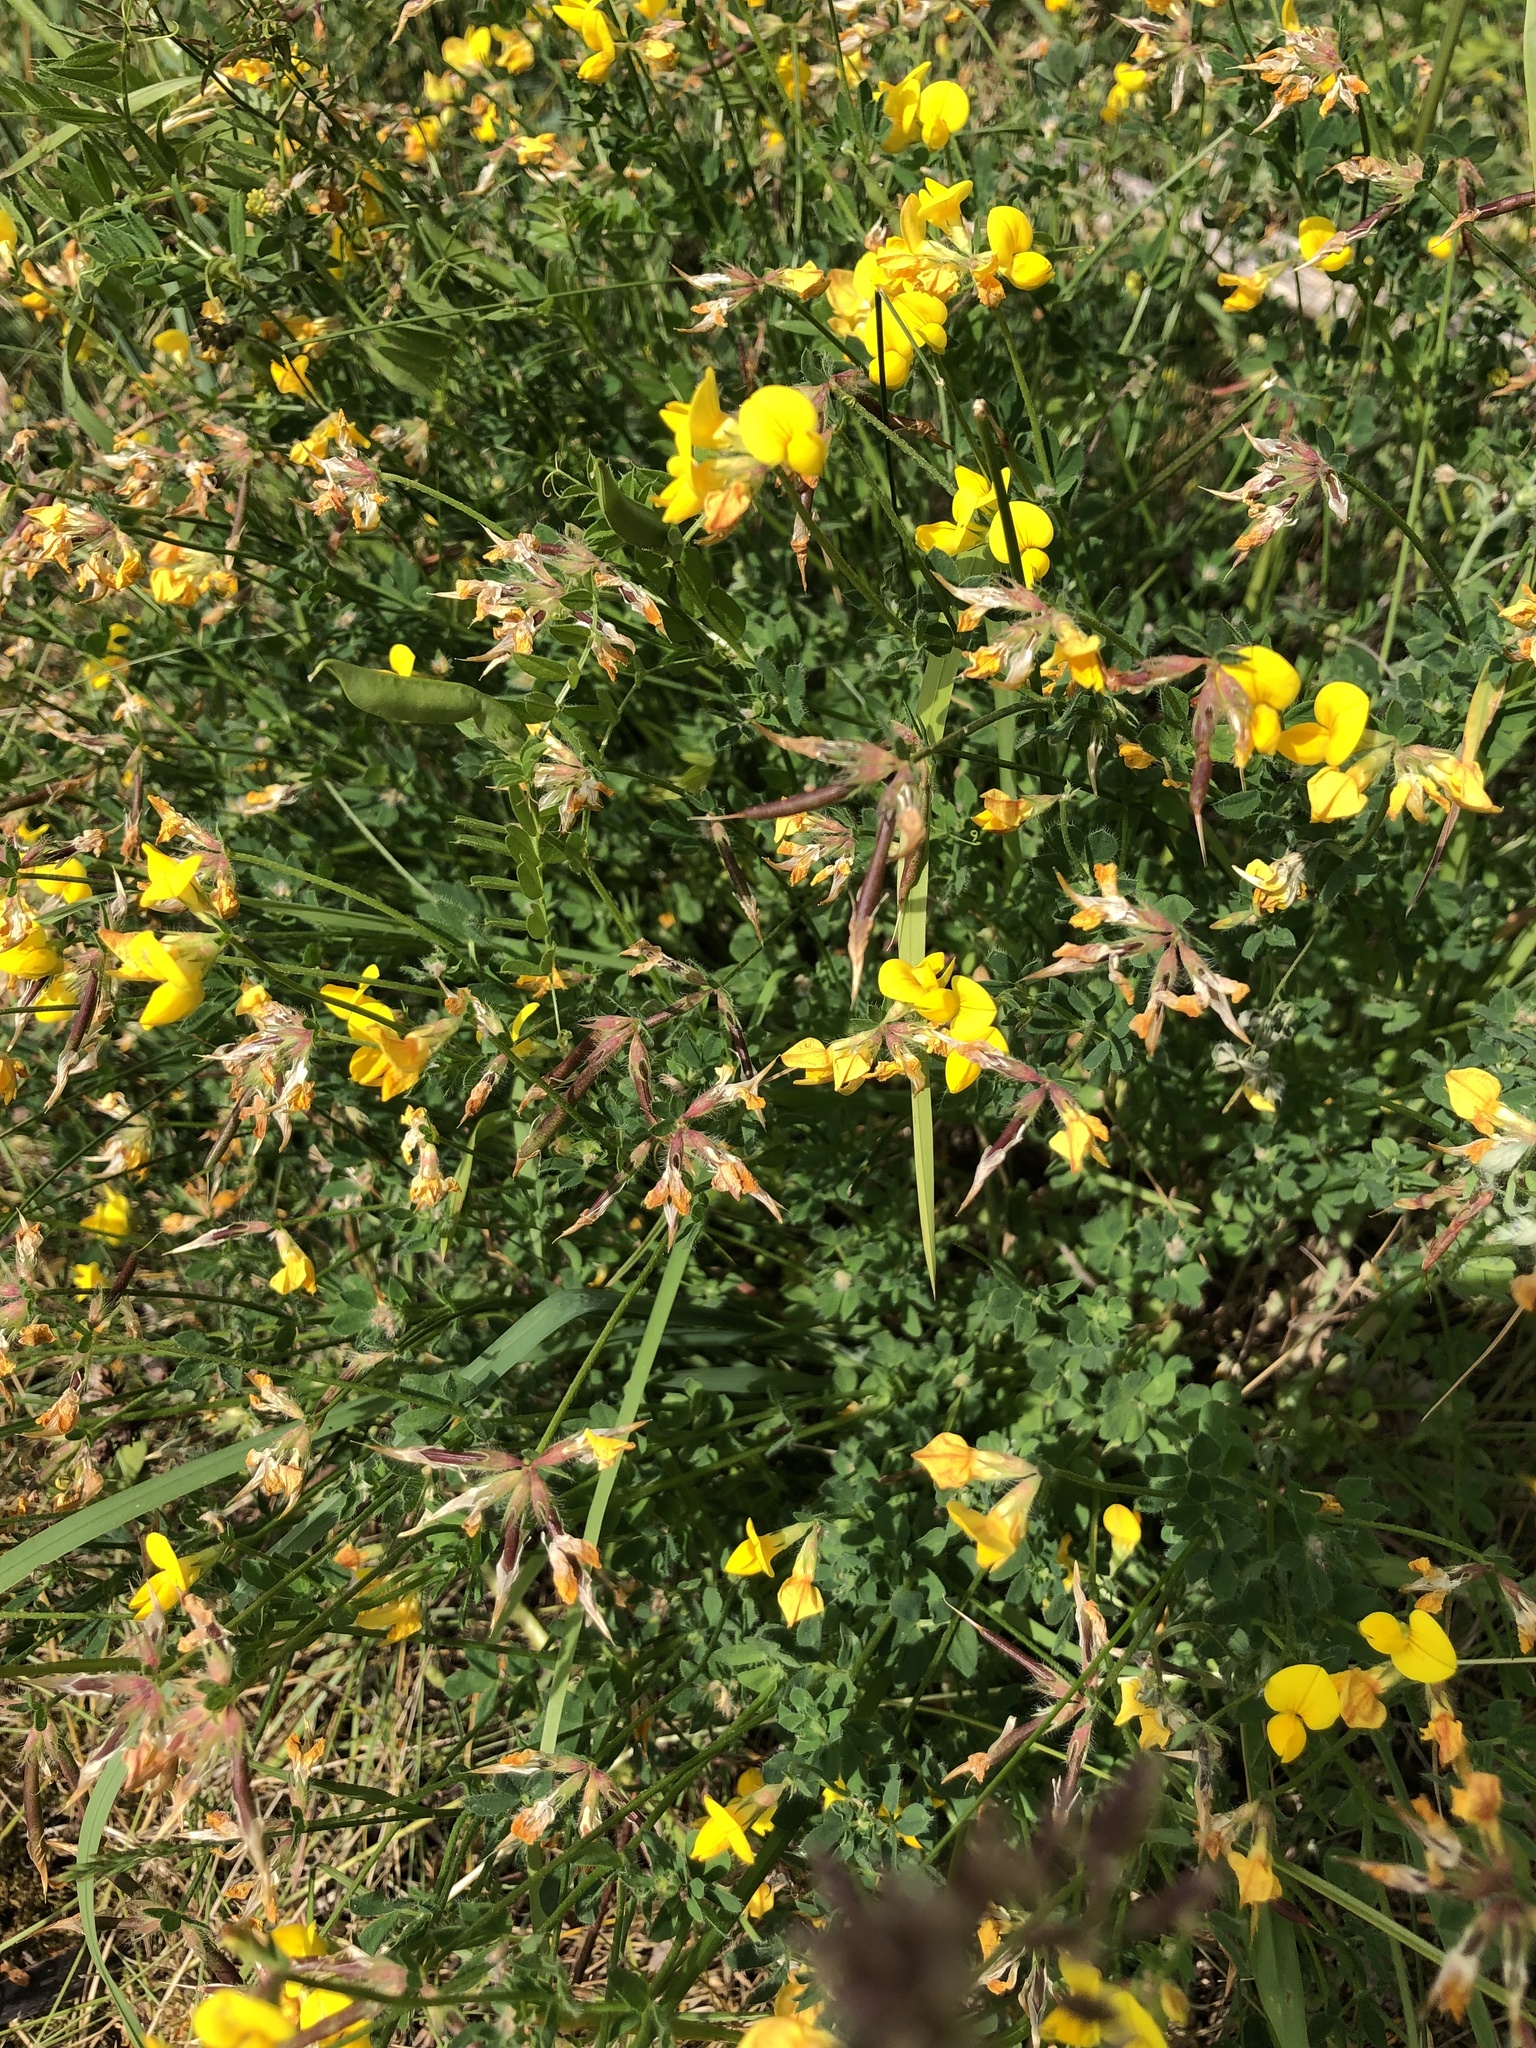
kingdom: Plantae
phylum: Tracheophyta
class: Magnoliopsida
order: Fabales
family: Fabaceae
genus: Lotus
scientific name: Lotus corniculatus
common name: Common bird's-foot-trefoil
